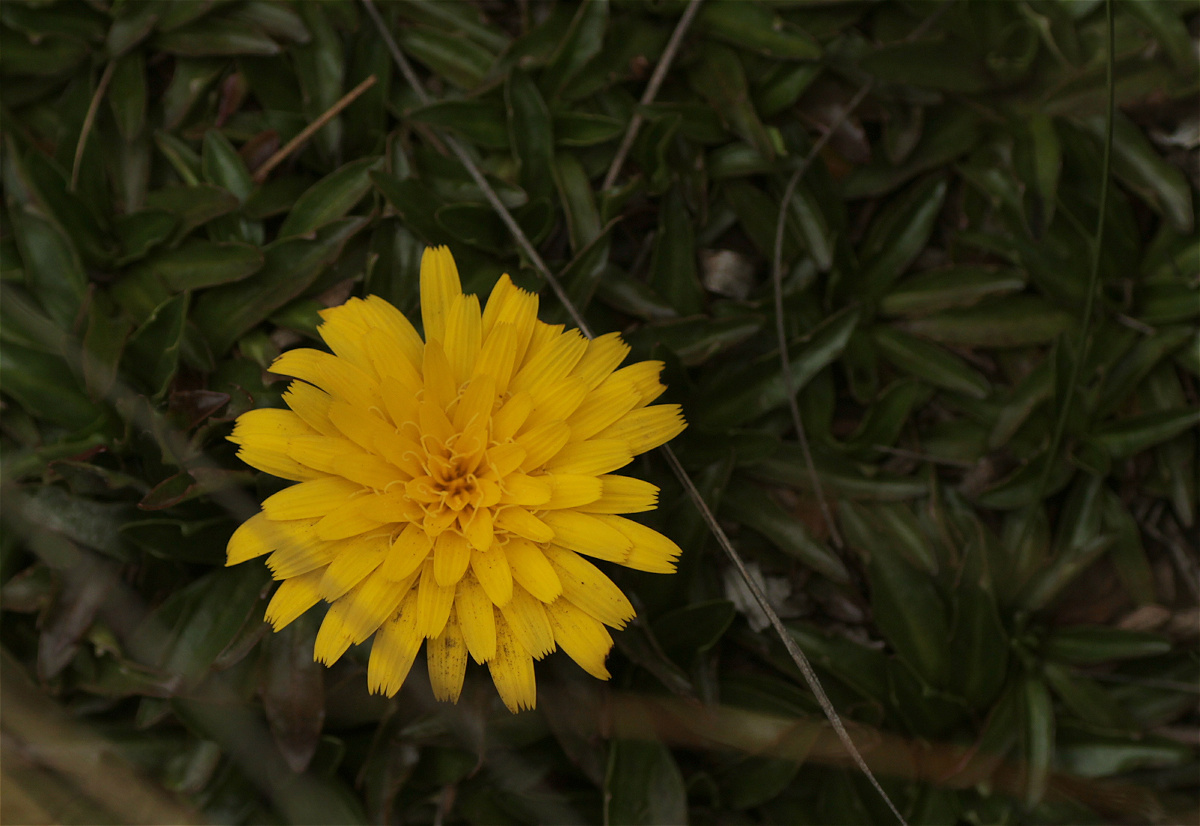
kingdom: Plantae
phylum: Tracheophyta
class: Magnoliopsida
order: Asterales
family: Asteraceae
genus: Hypochaeris
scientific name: Hypochaeris sessiliflora
